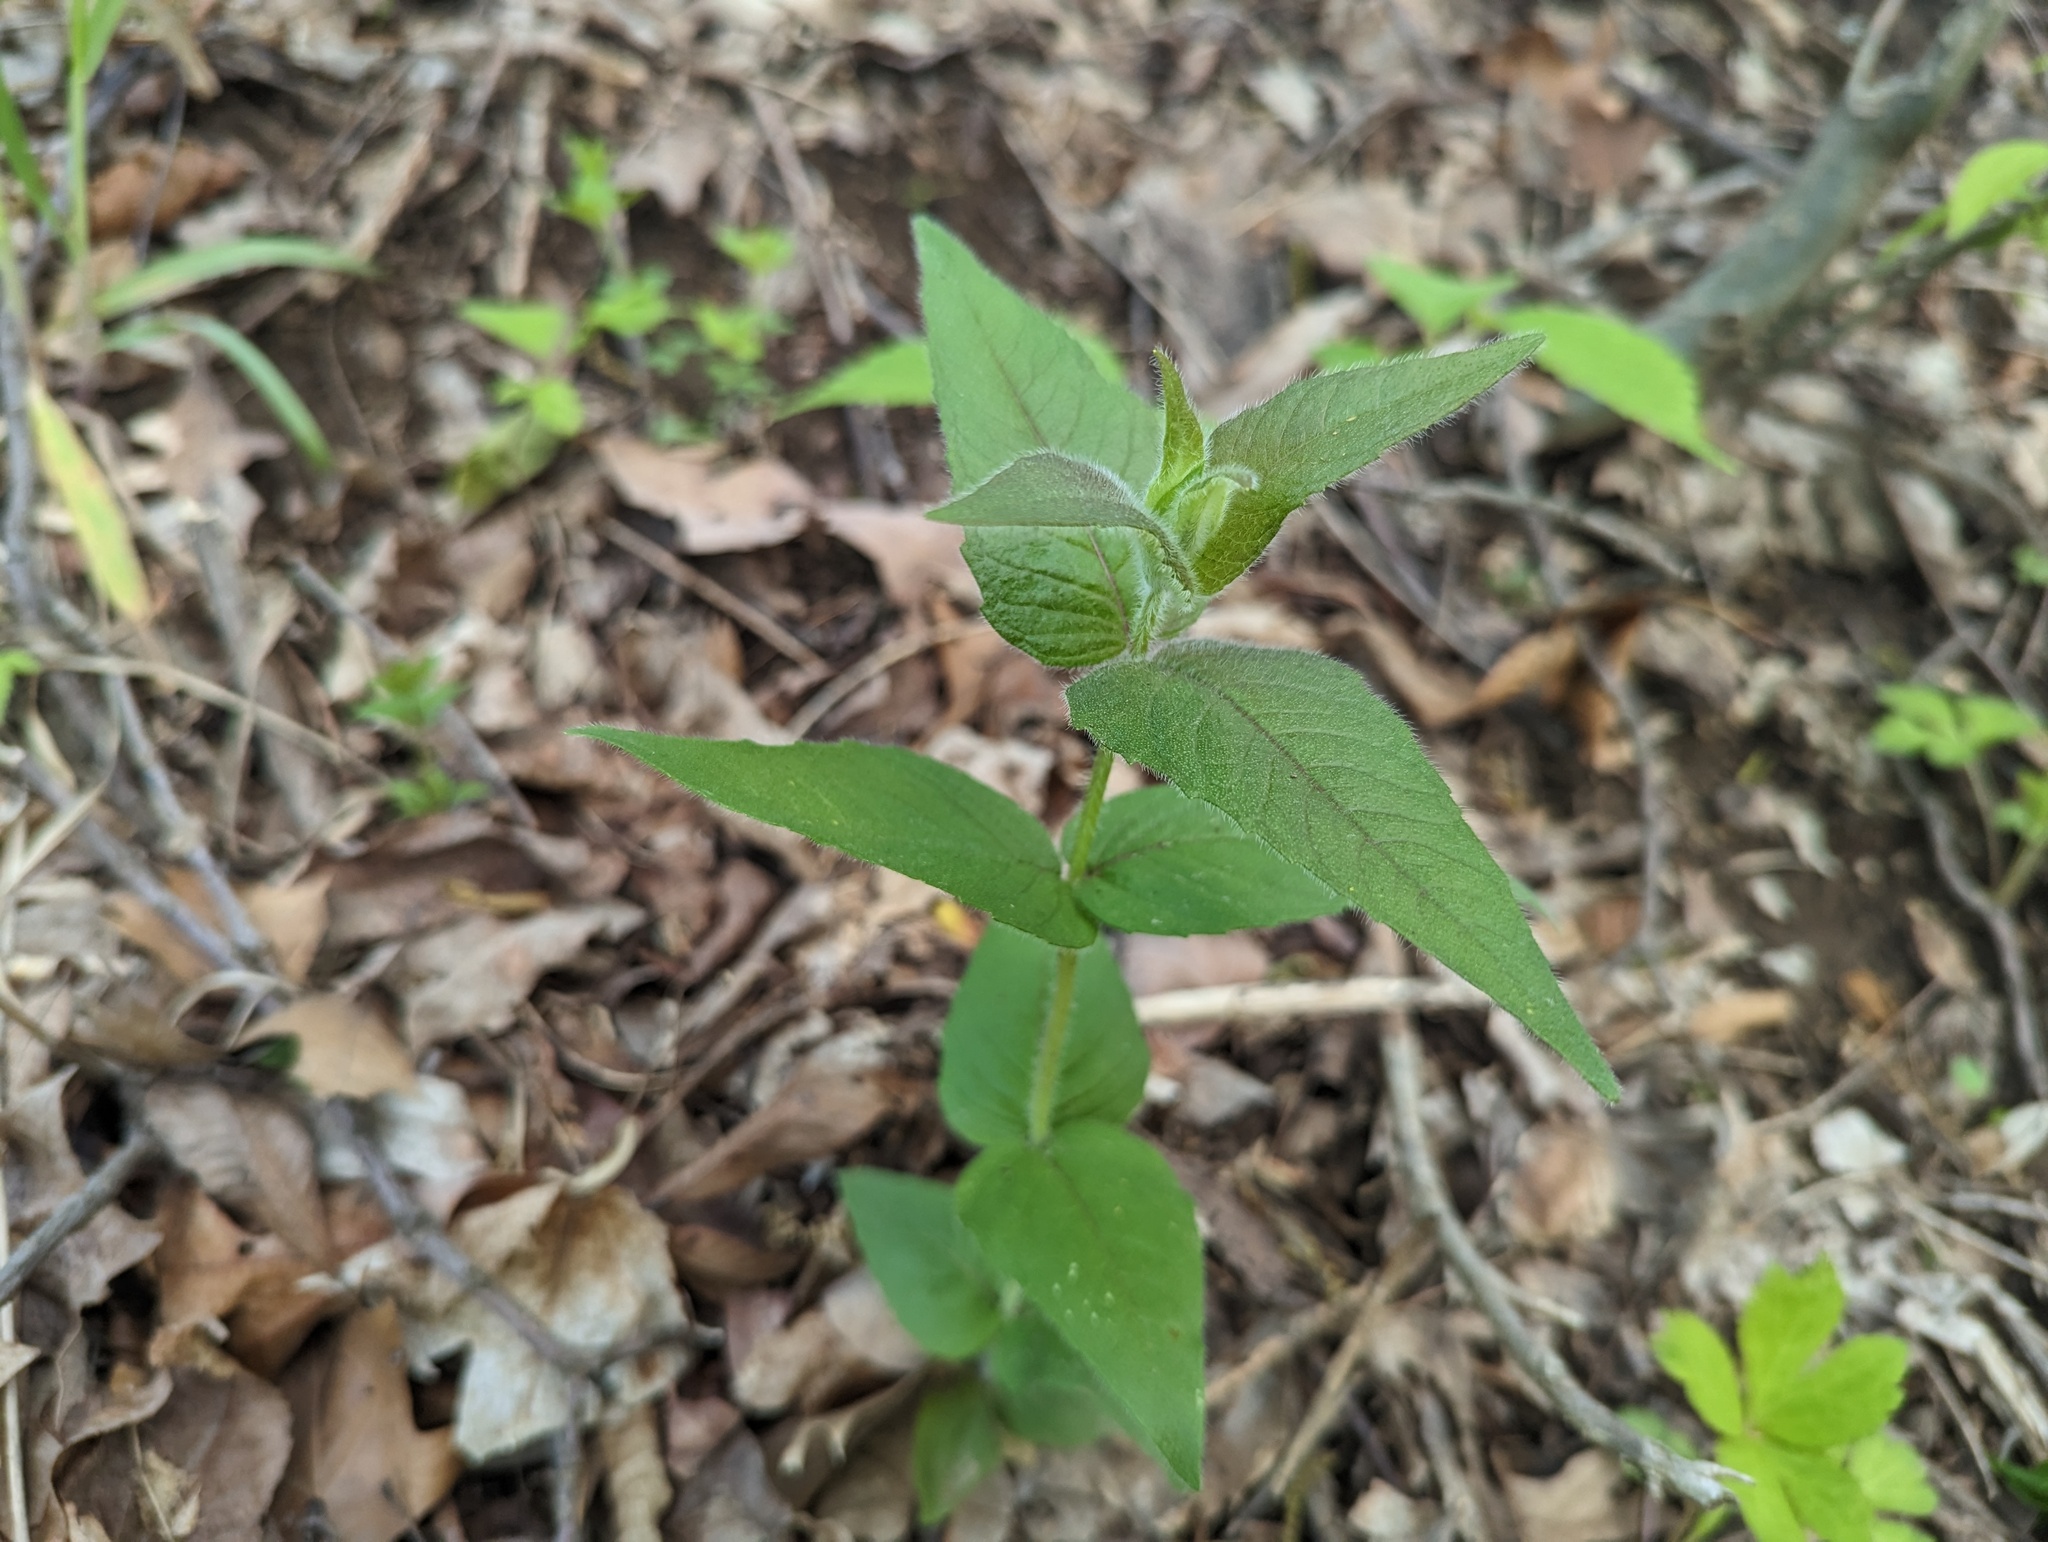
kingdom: Plantae
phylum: Tracheophyta
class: Magnoliopsida
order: Lamiales
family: Lamiaceae
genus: Monarda
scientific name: Monarda bradburiana
